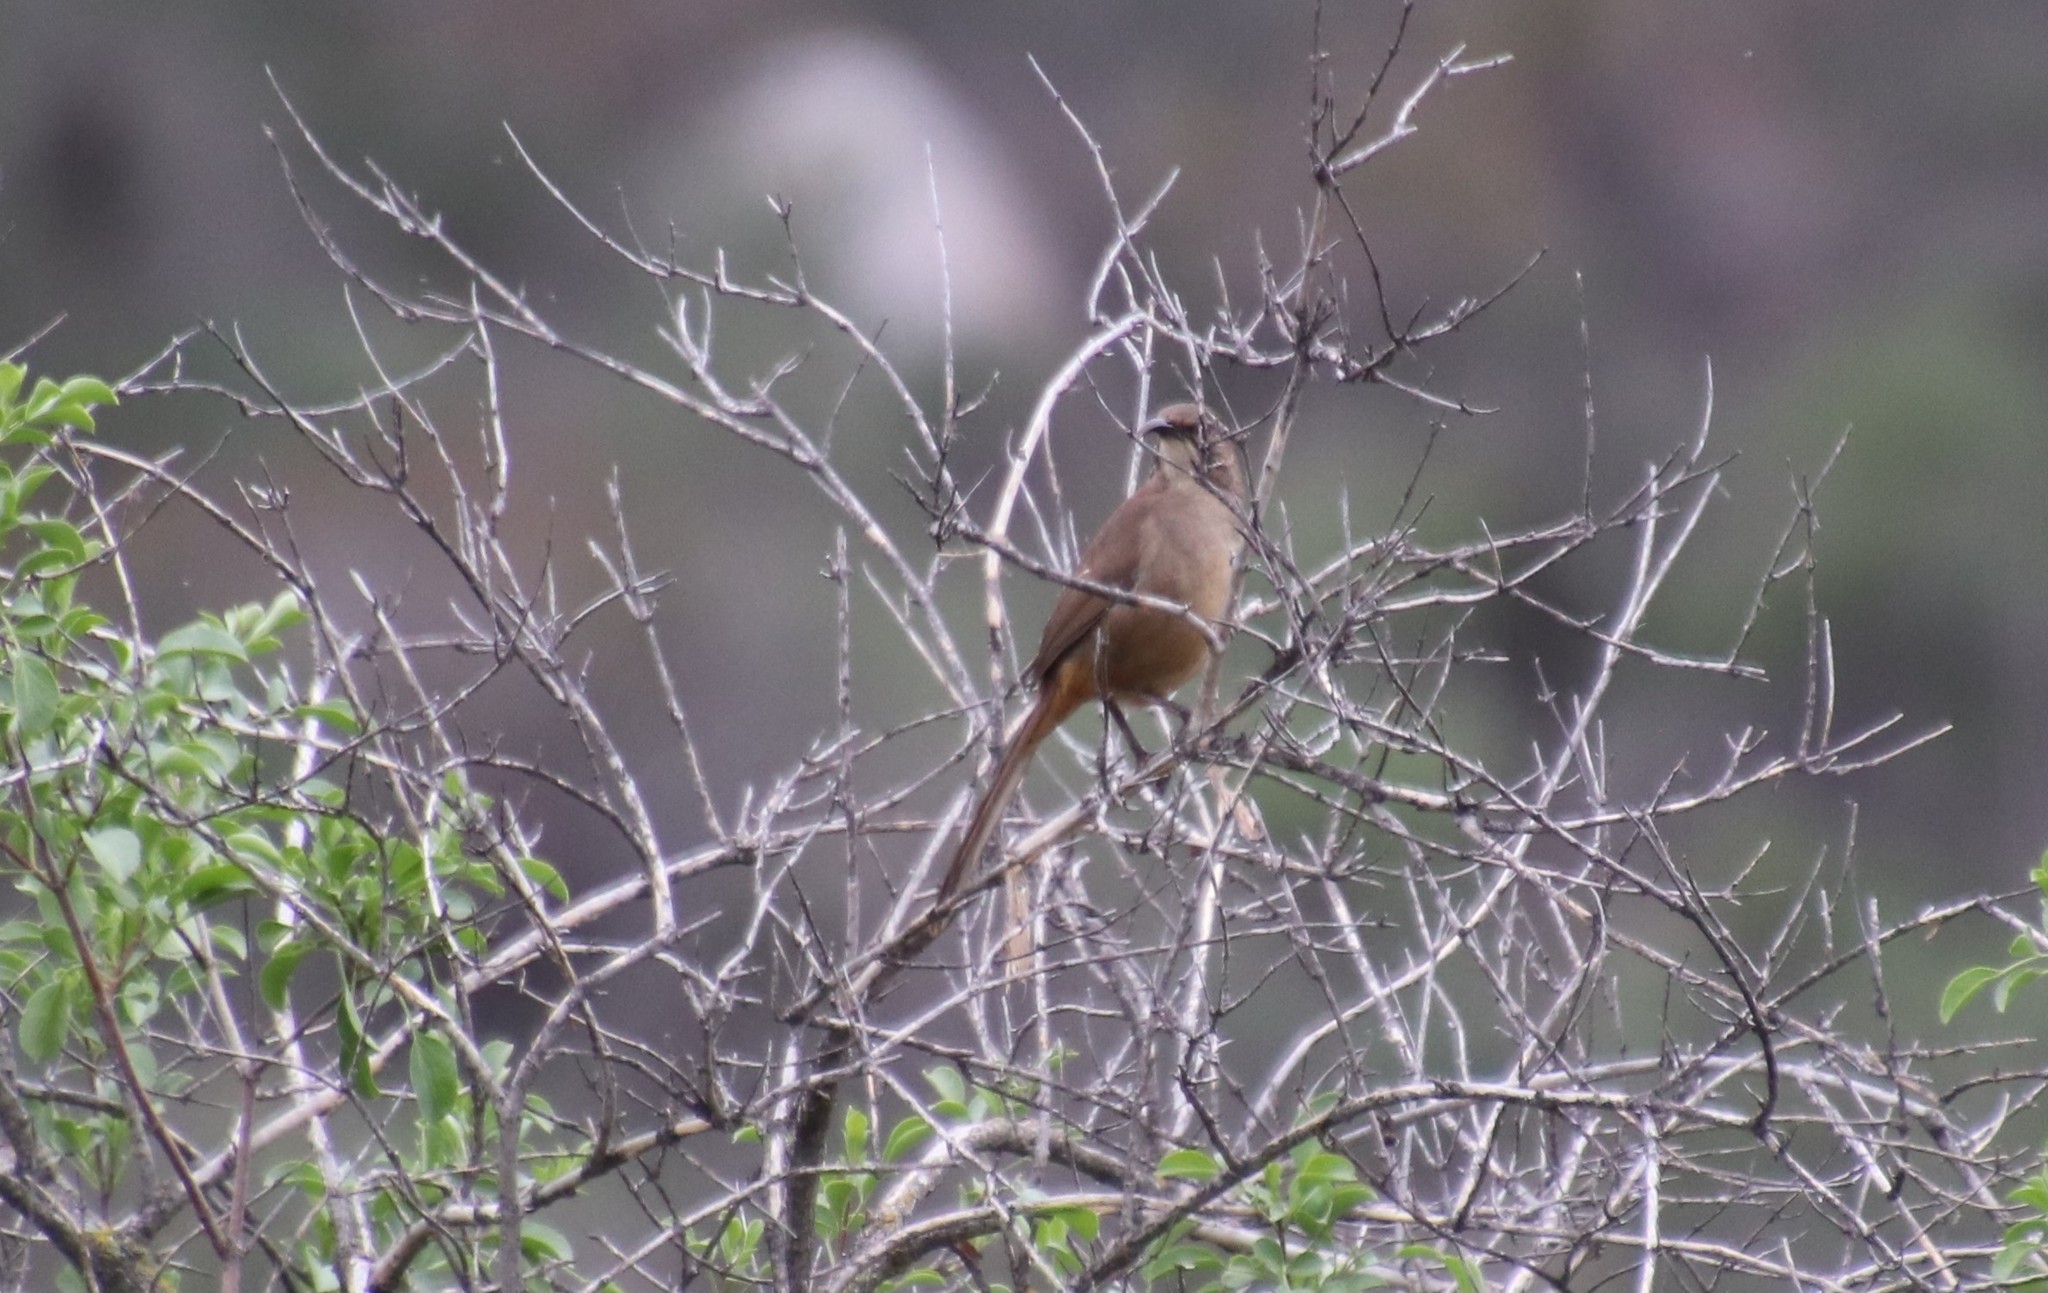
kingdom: Animalia
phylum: Chordata
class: Aves
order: Passeriformes
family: Mimidae
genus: Toxostoma
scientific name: Toxostoma redivivum
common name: California thrasher
